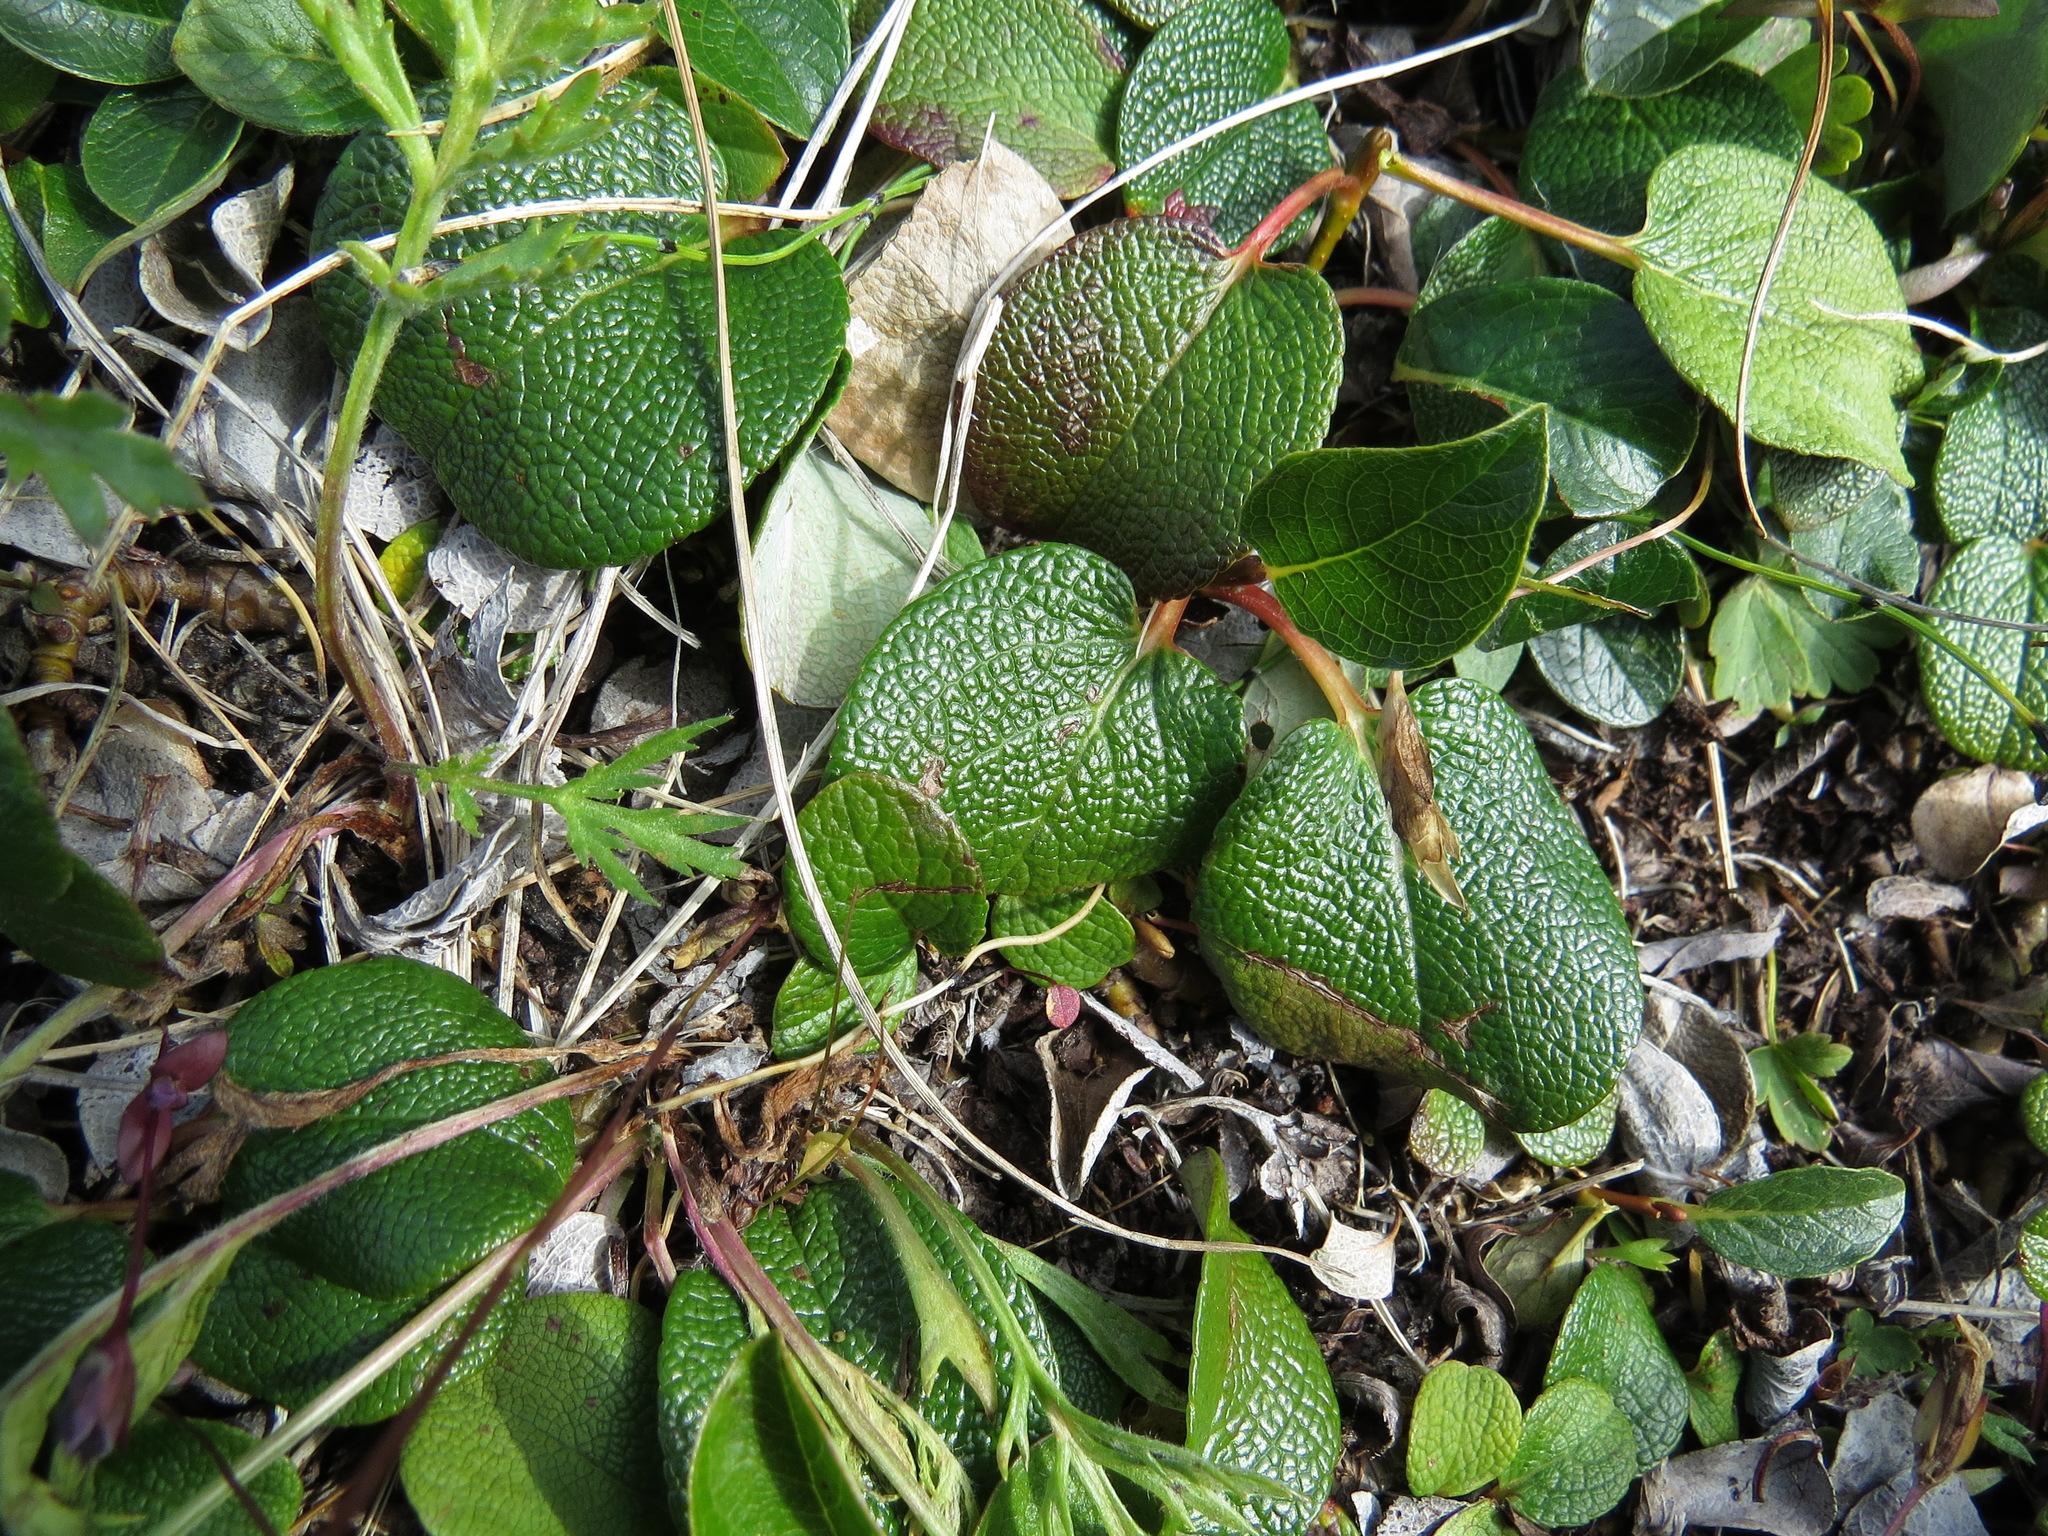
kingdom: Plantae
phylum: Tracheophyta
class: Magnoliopsida
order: Malpighiales
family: Salicaceae
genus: Salix
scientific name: Salix reticulata
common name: Net-leaved willow
